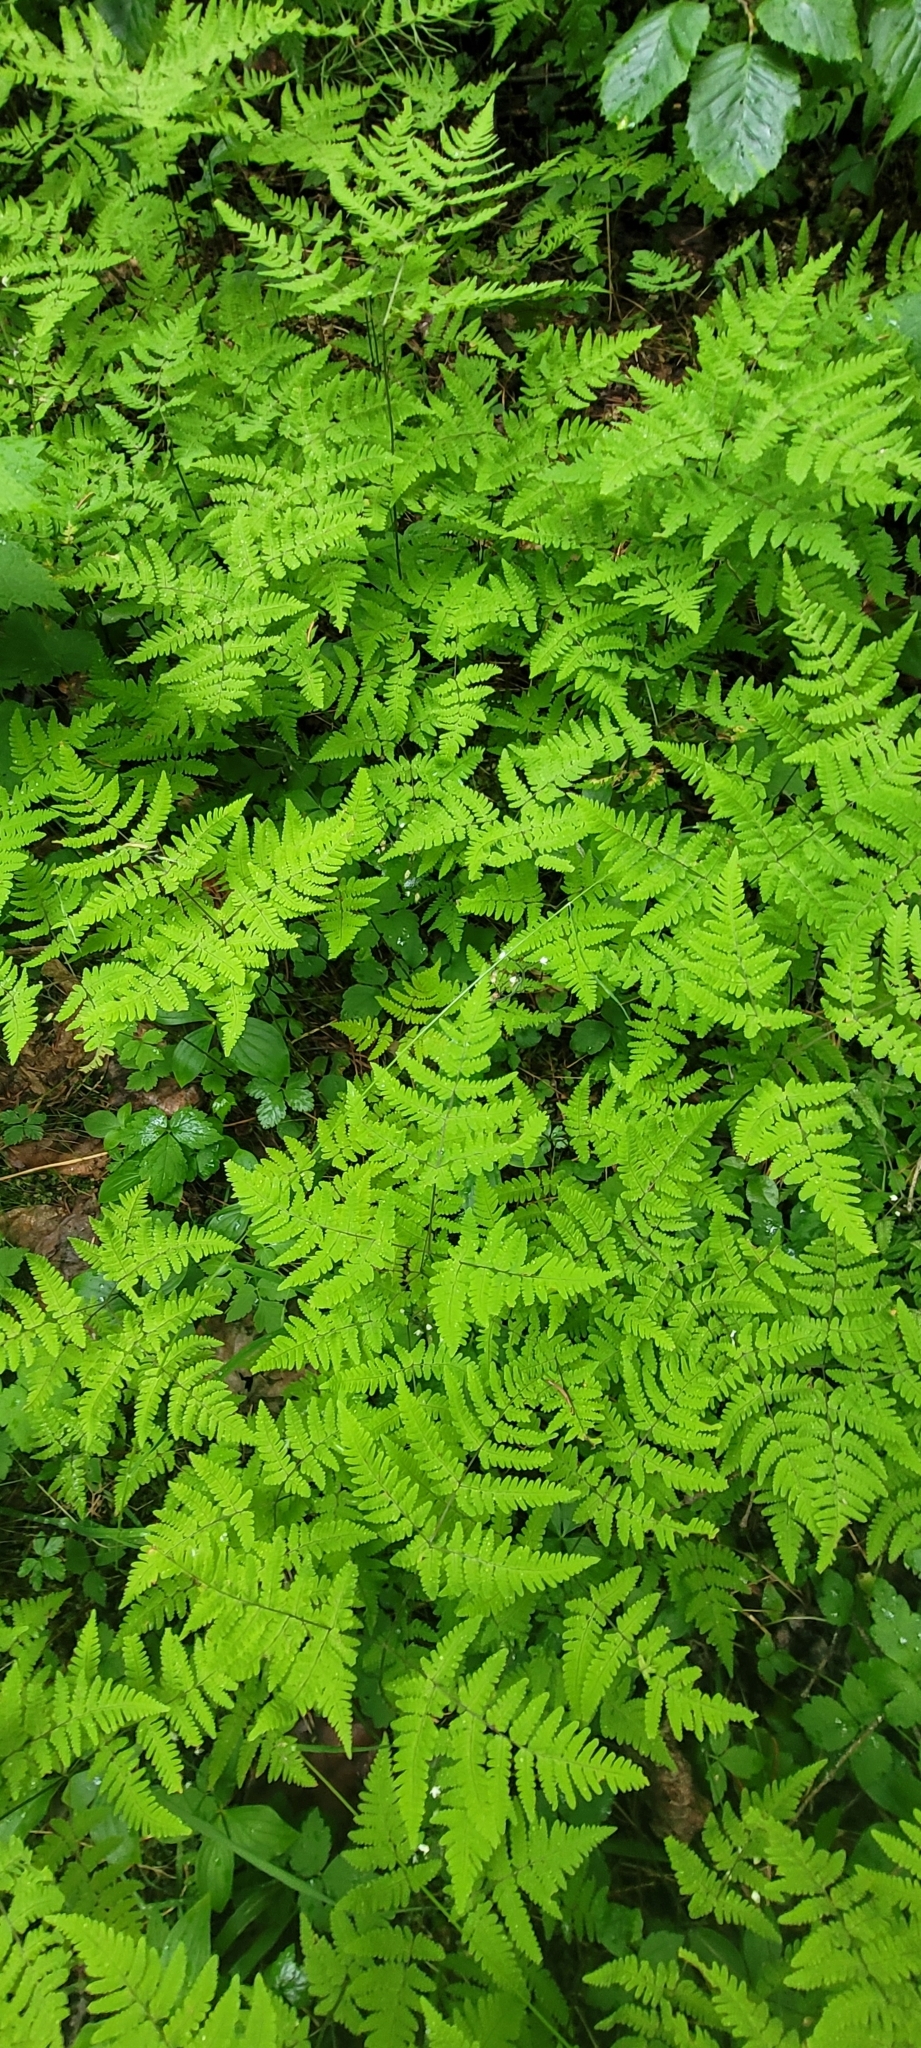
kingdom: Plantae
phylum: Tracheophyta
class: Polypodiopsida
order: Polypodiales
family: Cystopteridaceae
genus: Gymnocarpium
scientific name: Gymnocarpium disjunctum
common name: Western oak fern
